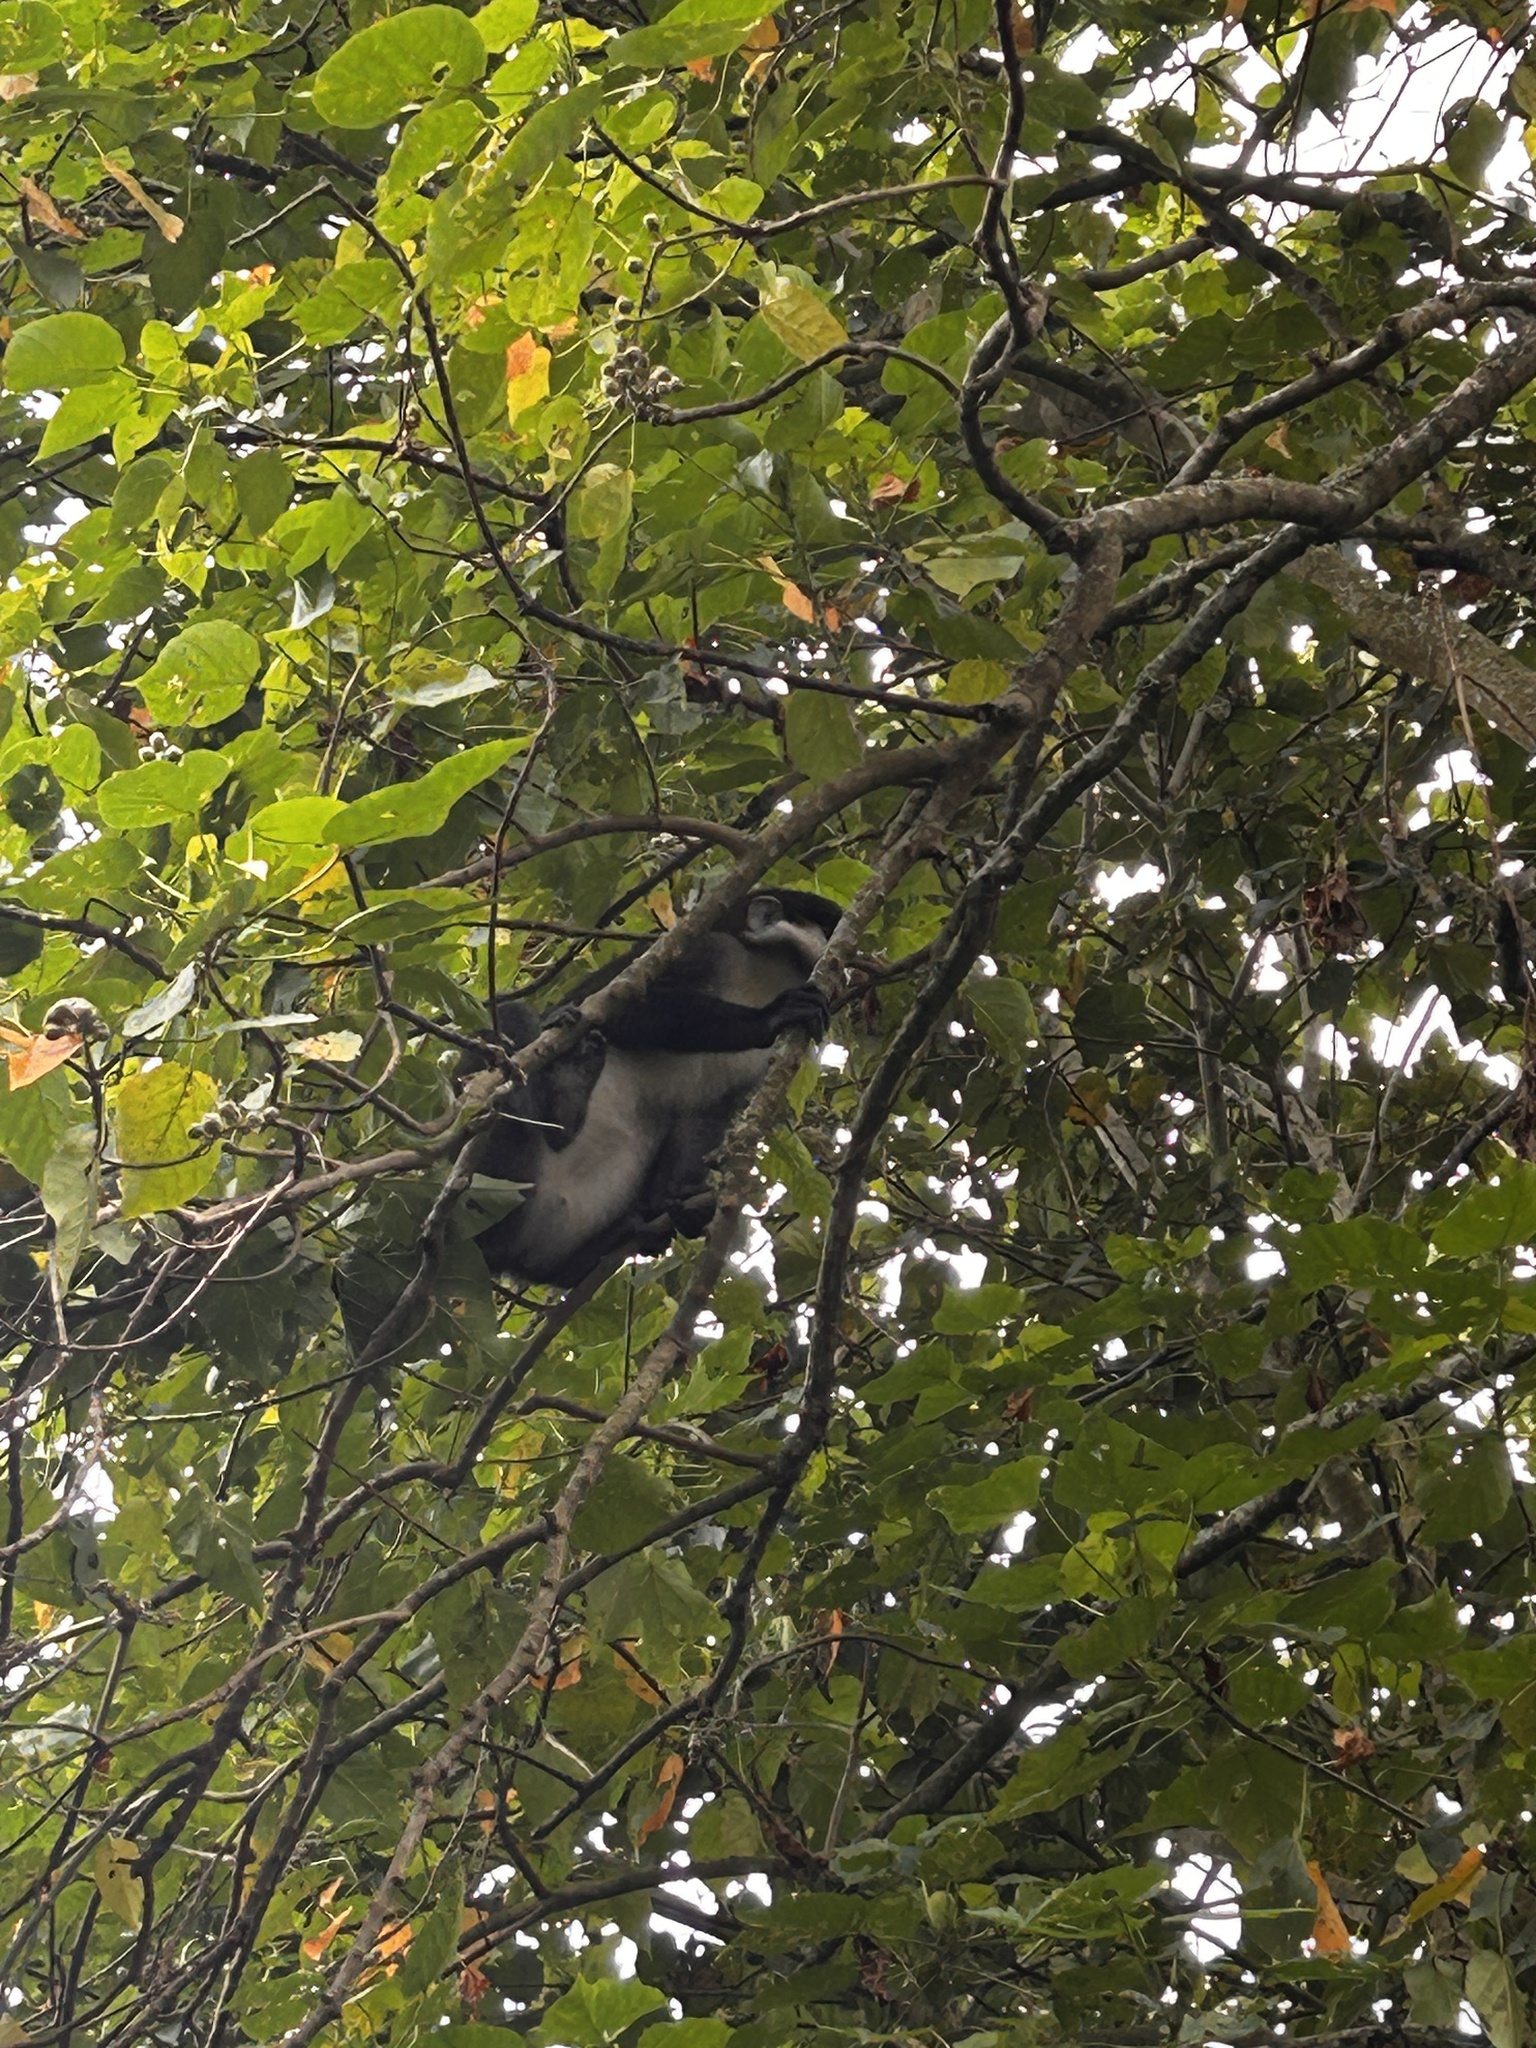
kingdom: Animalia
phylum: Chordata
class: Mammalia
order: Primates
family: Cercopithecidae
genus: Cercopithecus
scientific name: Cercopithecus ascanius
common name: Red-tailed monkey
